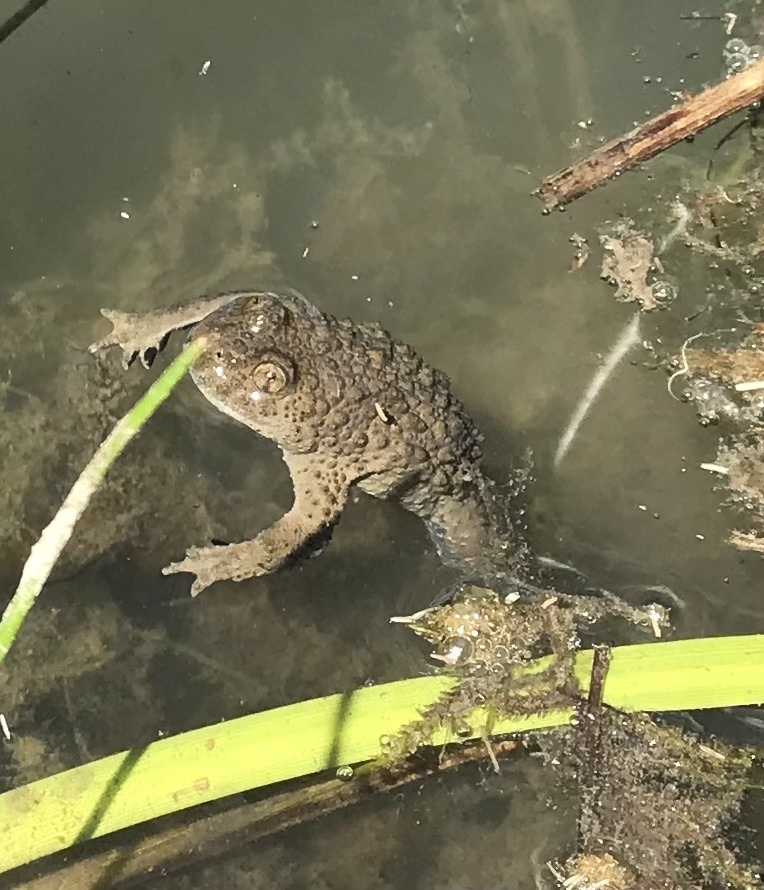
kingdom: Animalia
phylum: Chordata
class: Amphibia
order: Anura
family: Bombinatoridae
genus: Bombina
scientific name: Bombina variegata
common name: Yellow-bellied toad
